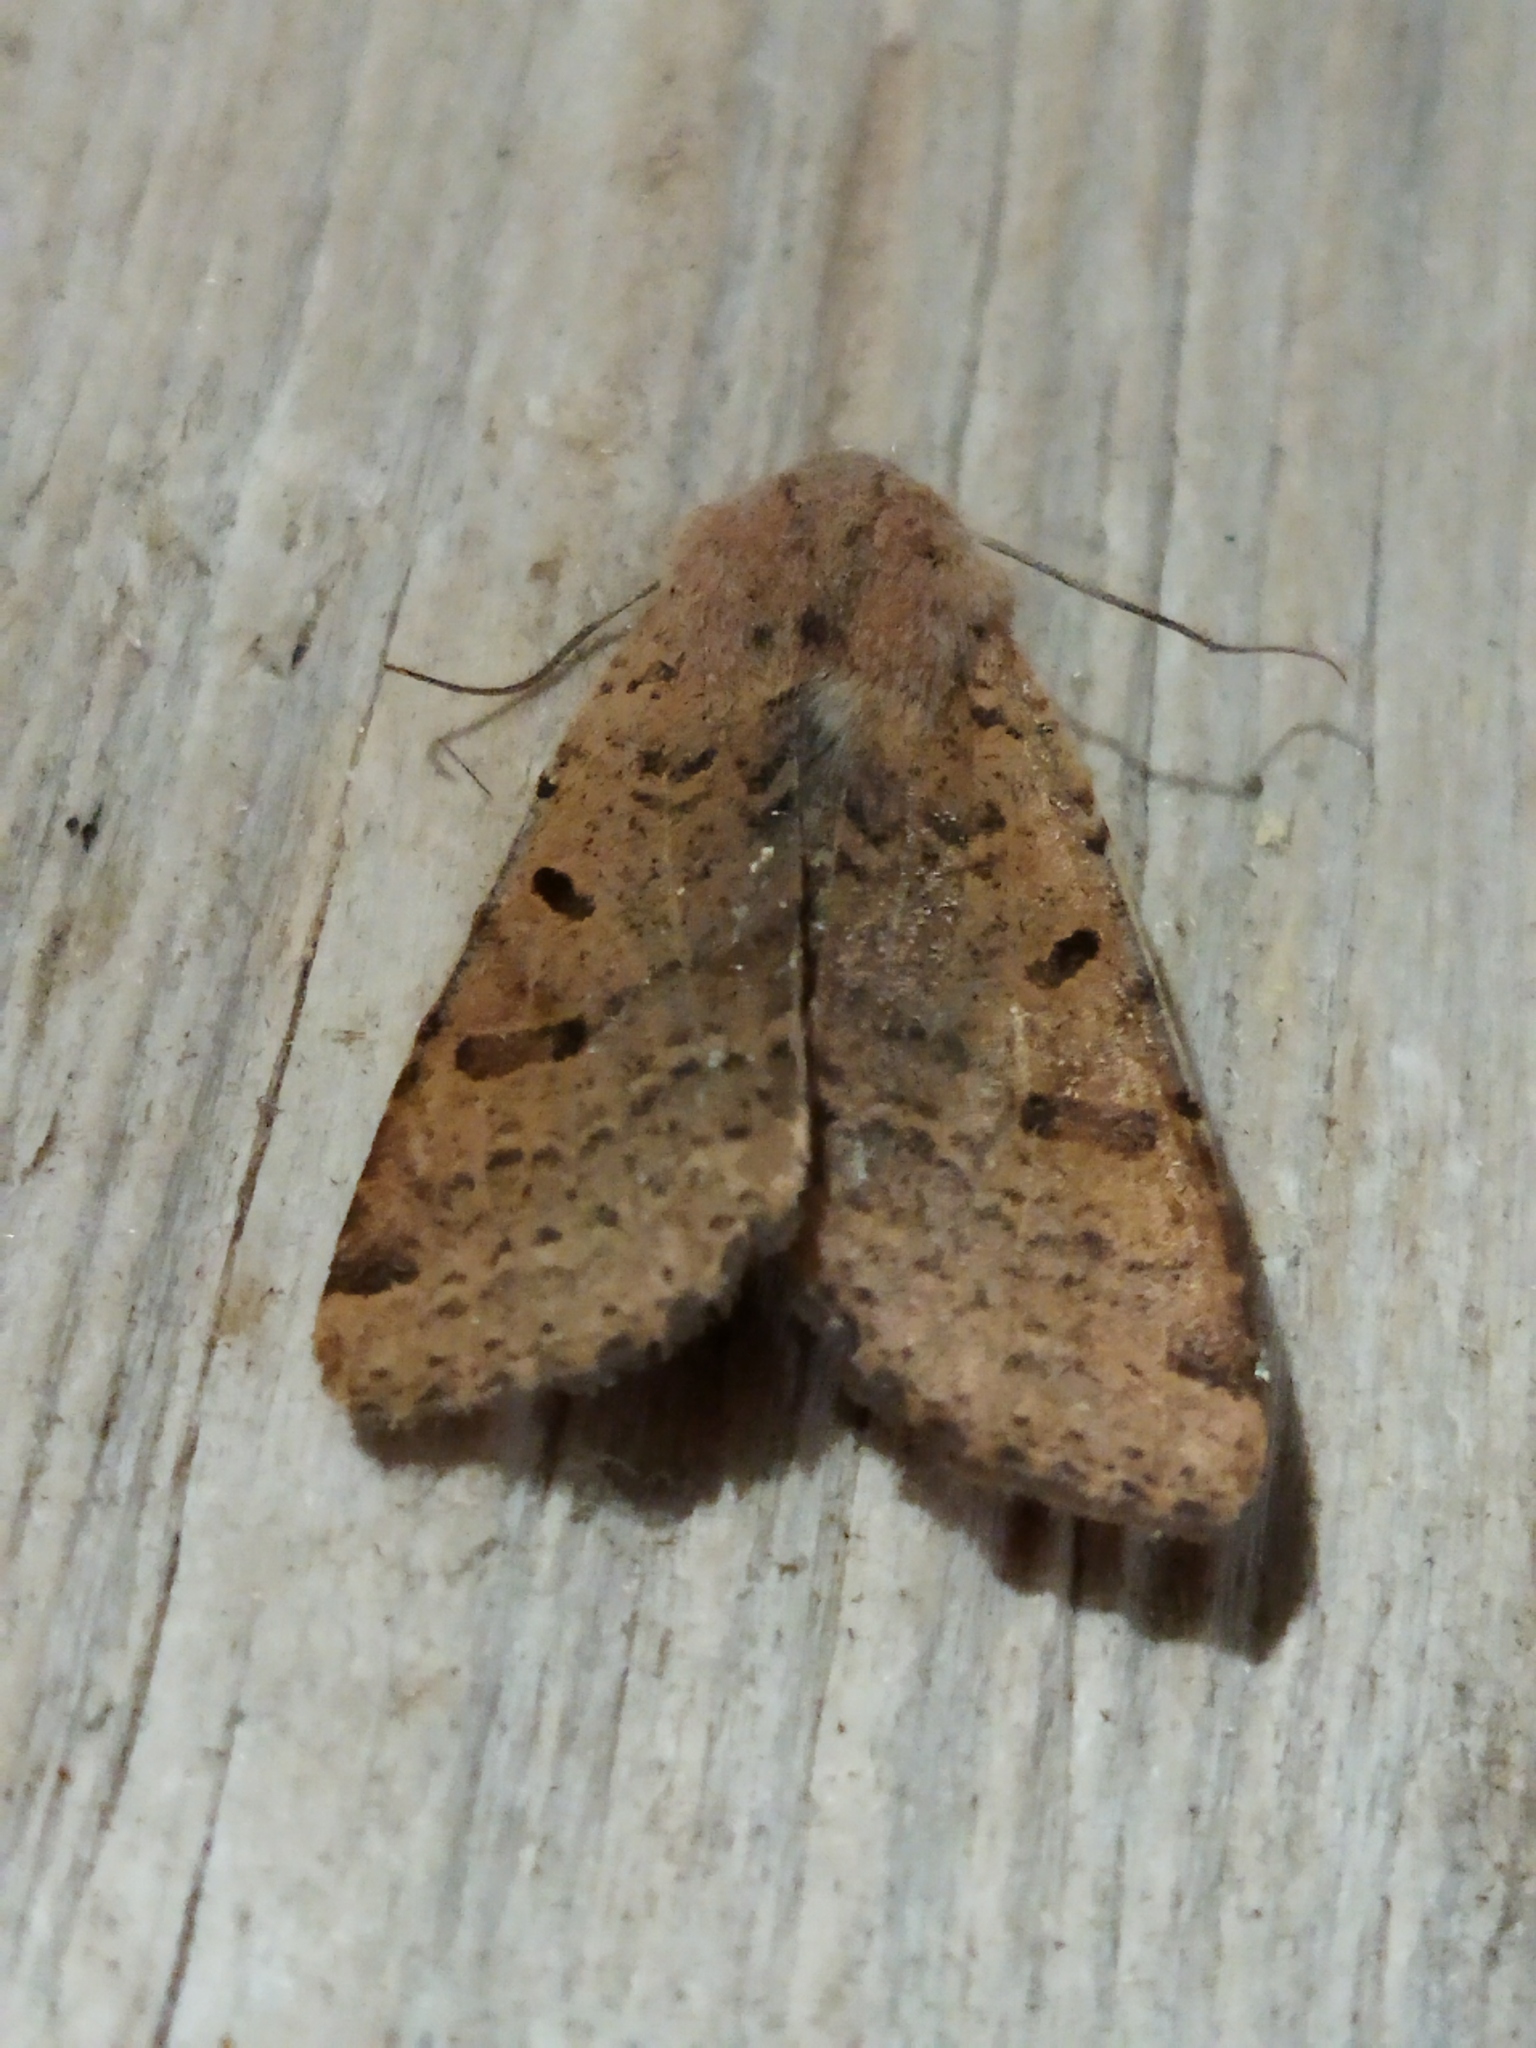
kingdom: Animalia
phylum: Arthropoda
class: Insecta
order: Lepidoptera
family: Noctuidae
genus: Agrochola
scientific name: Agrochola lychnidis
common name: Beaded chestnut
